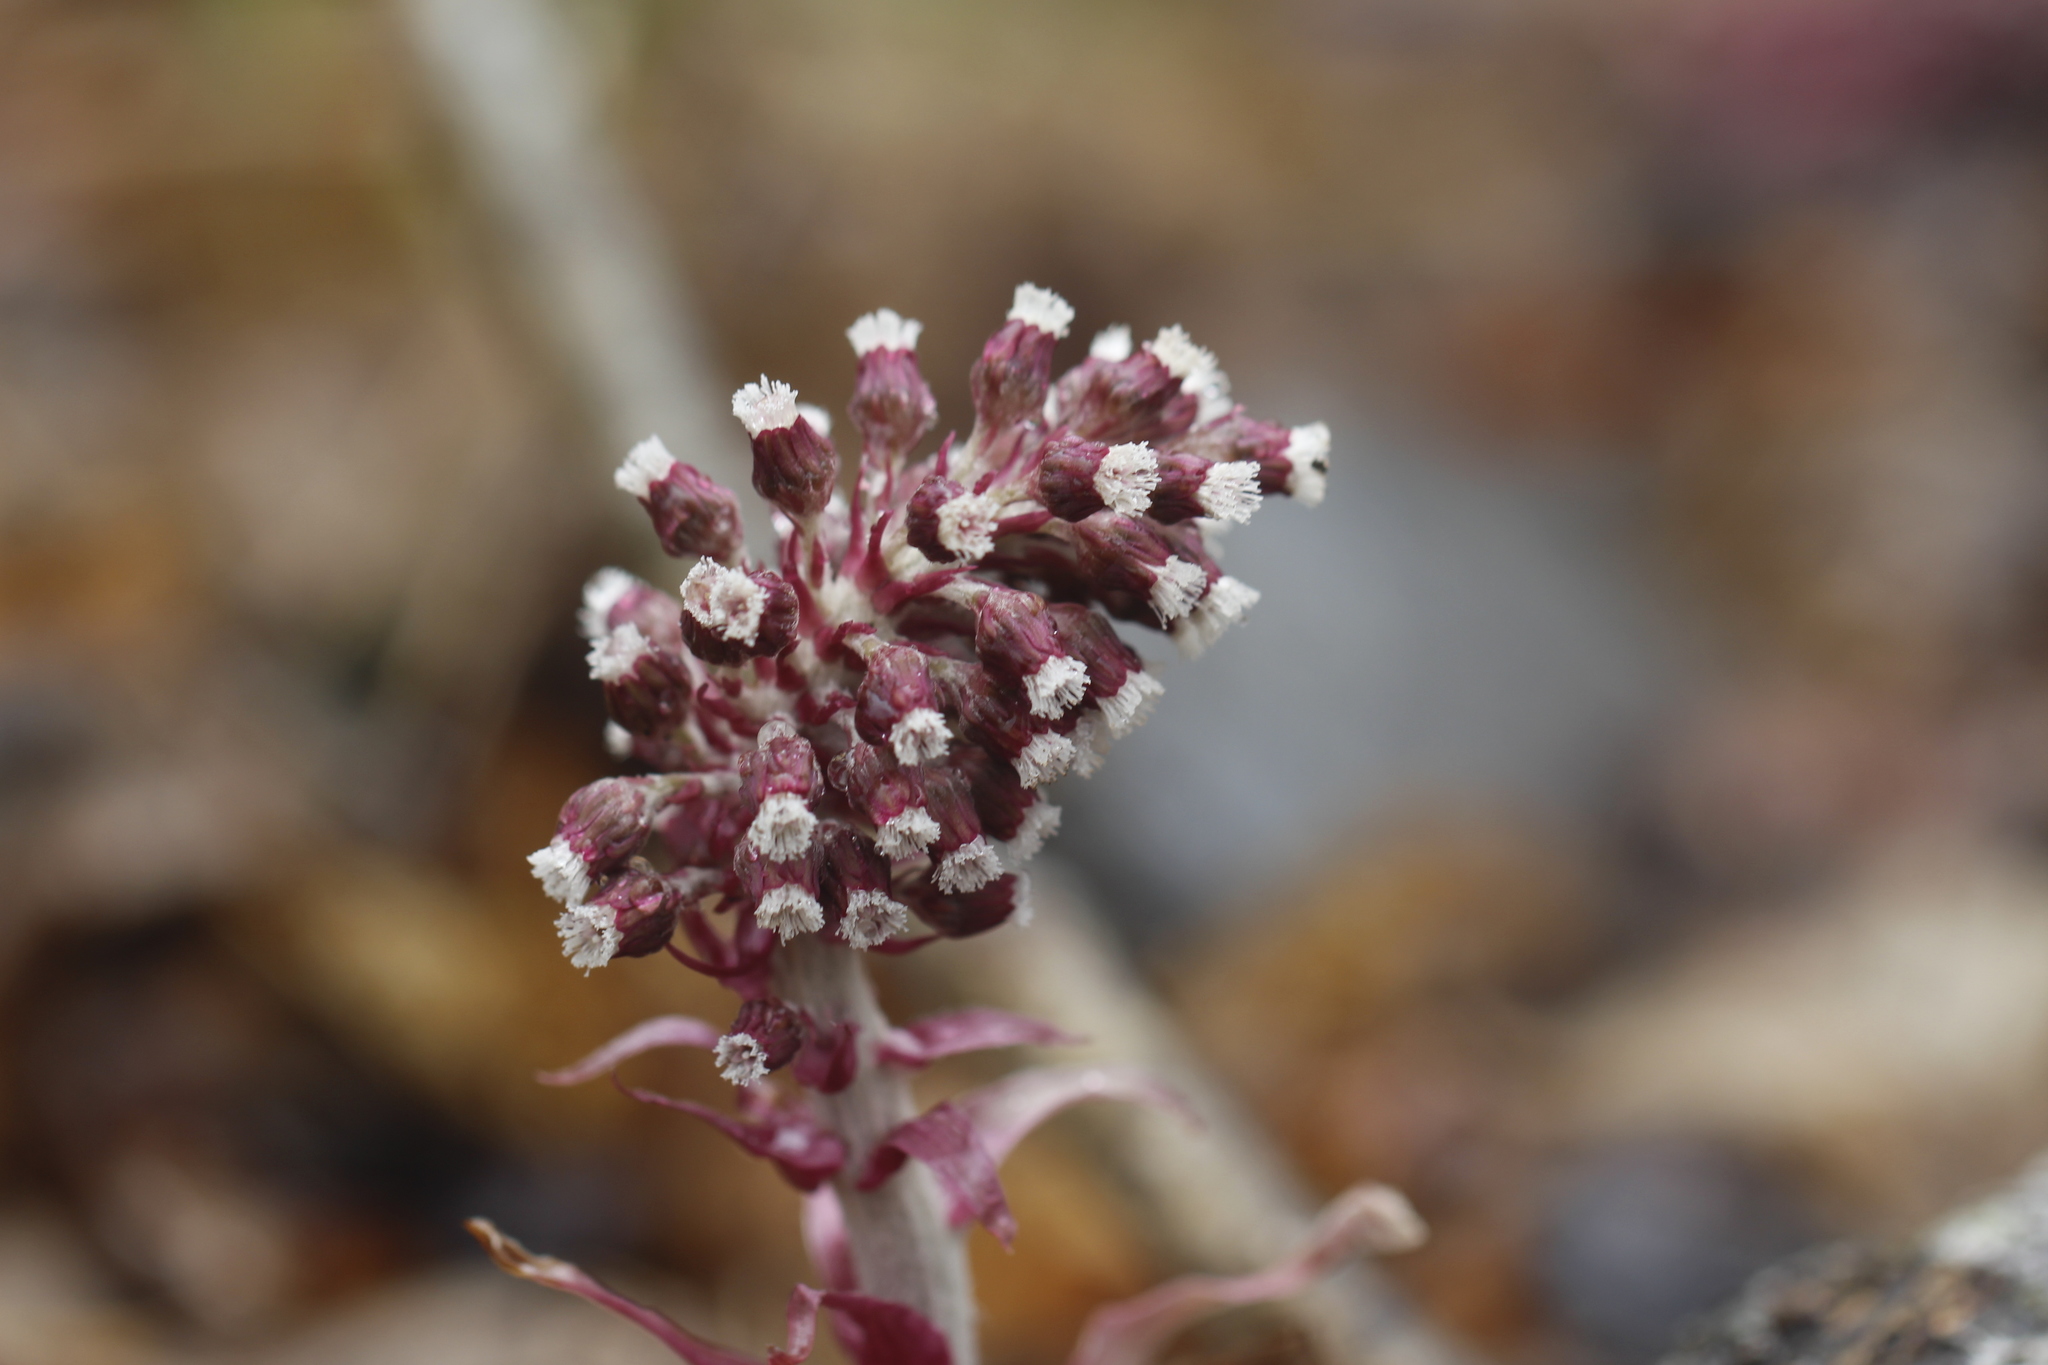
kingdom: Plantae
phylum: Tracheophyta
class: Magnoliopsida
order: Asterales
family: Asteraceae
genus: Petasites
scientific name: Petasites hybridus
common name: Butterbur
